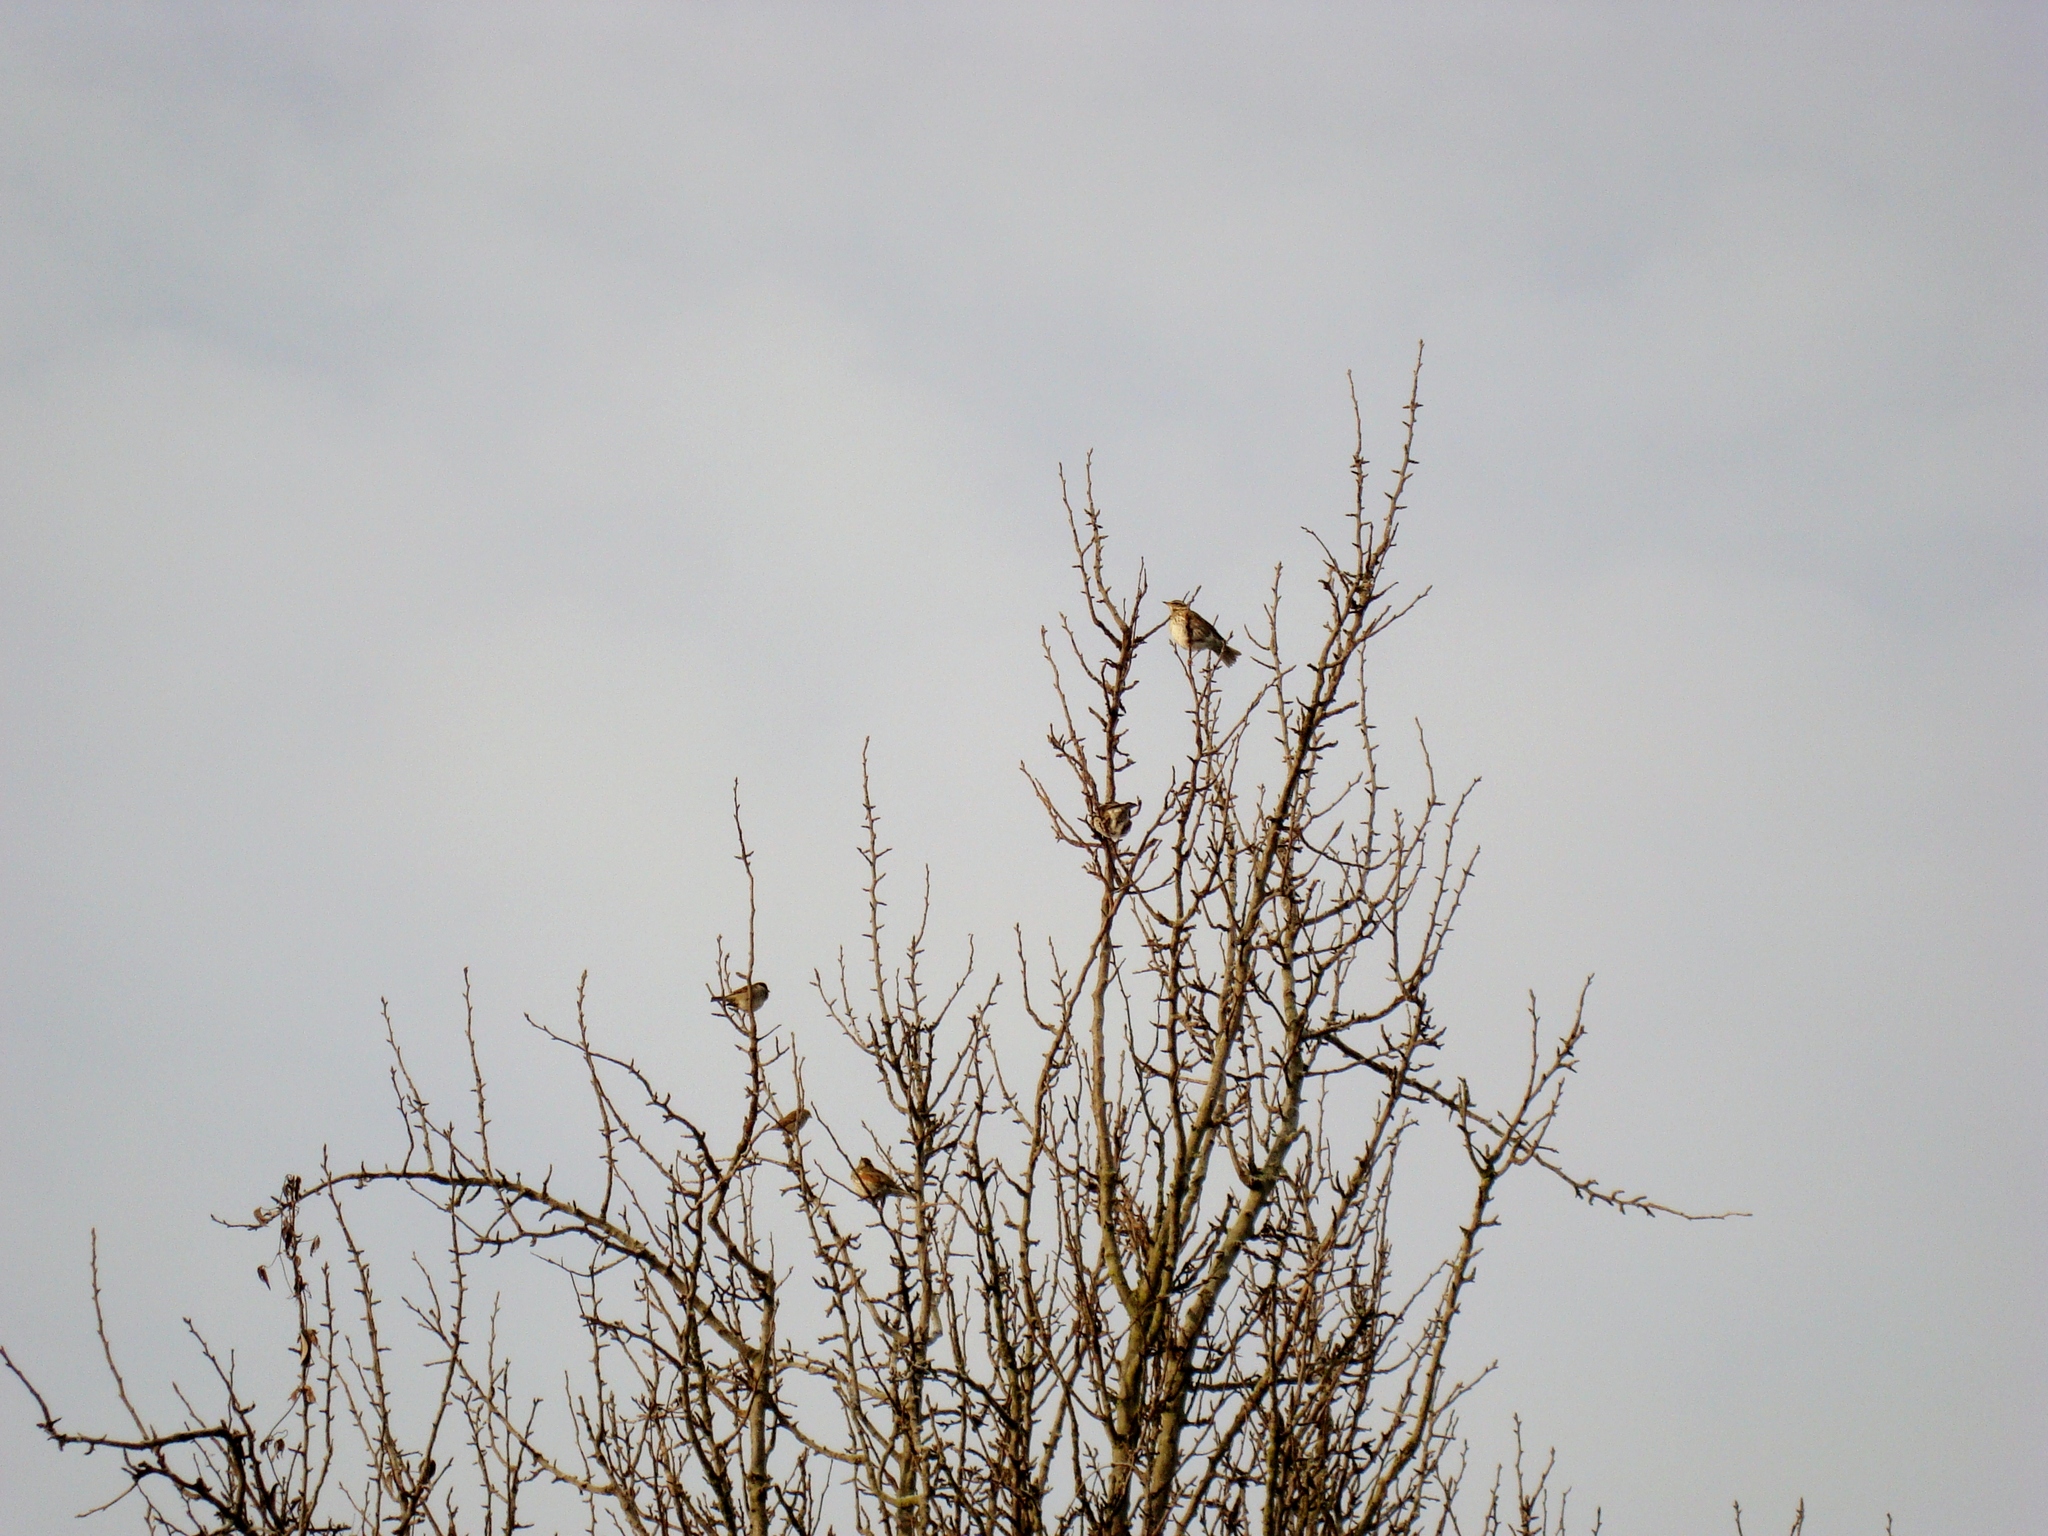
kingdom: Animalia
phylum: Chordata
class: Aves
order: Passeriformes
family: Turdidae
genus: Turdus
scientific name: Turdus iliacus
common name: Redwing
